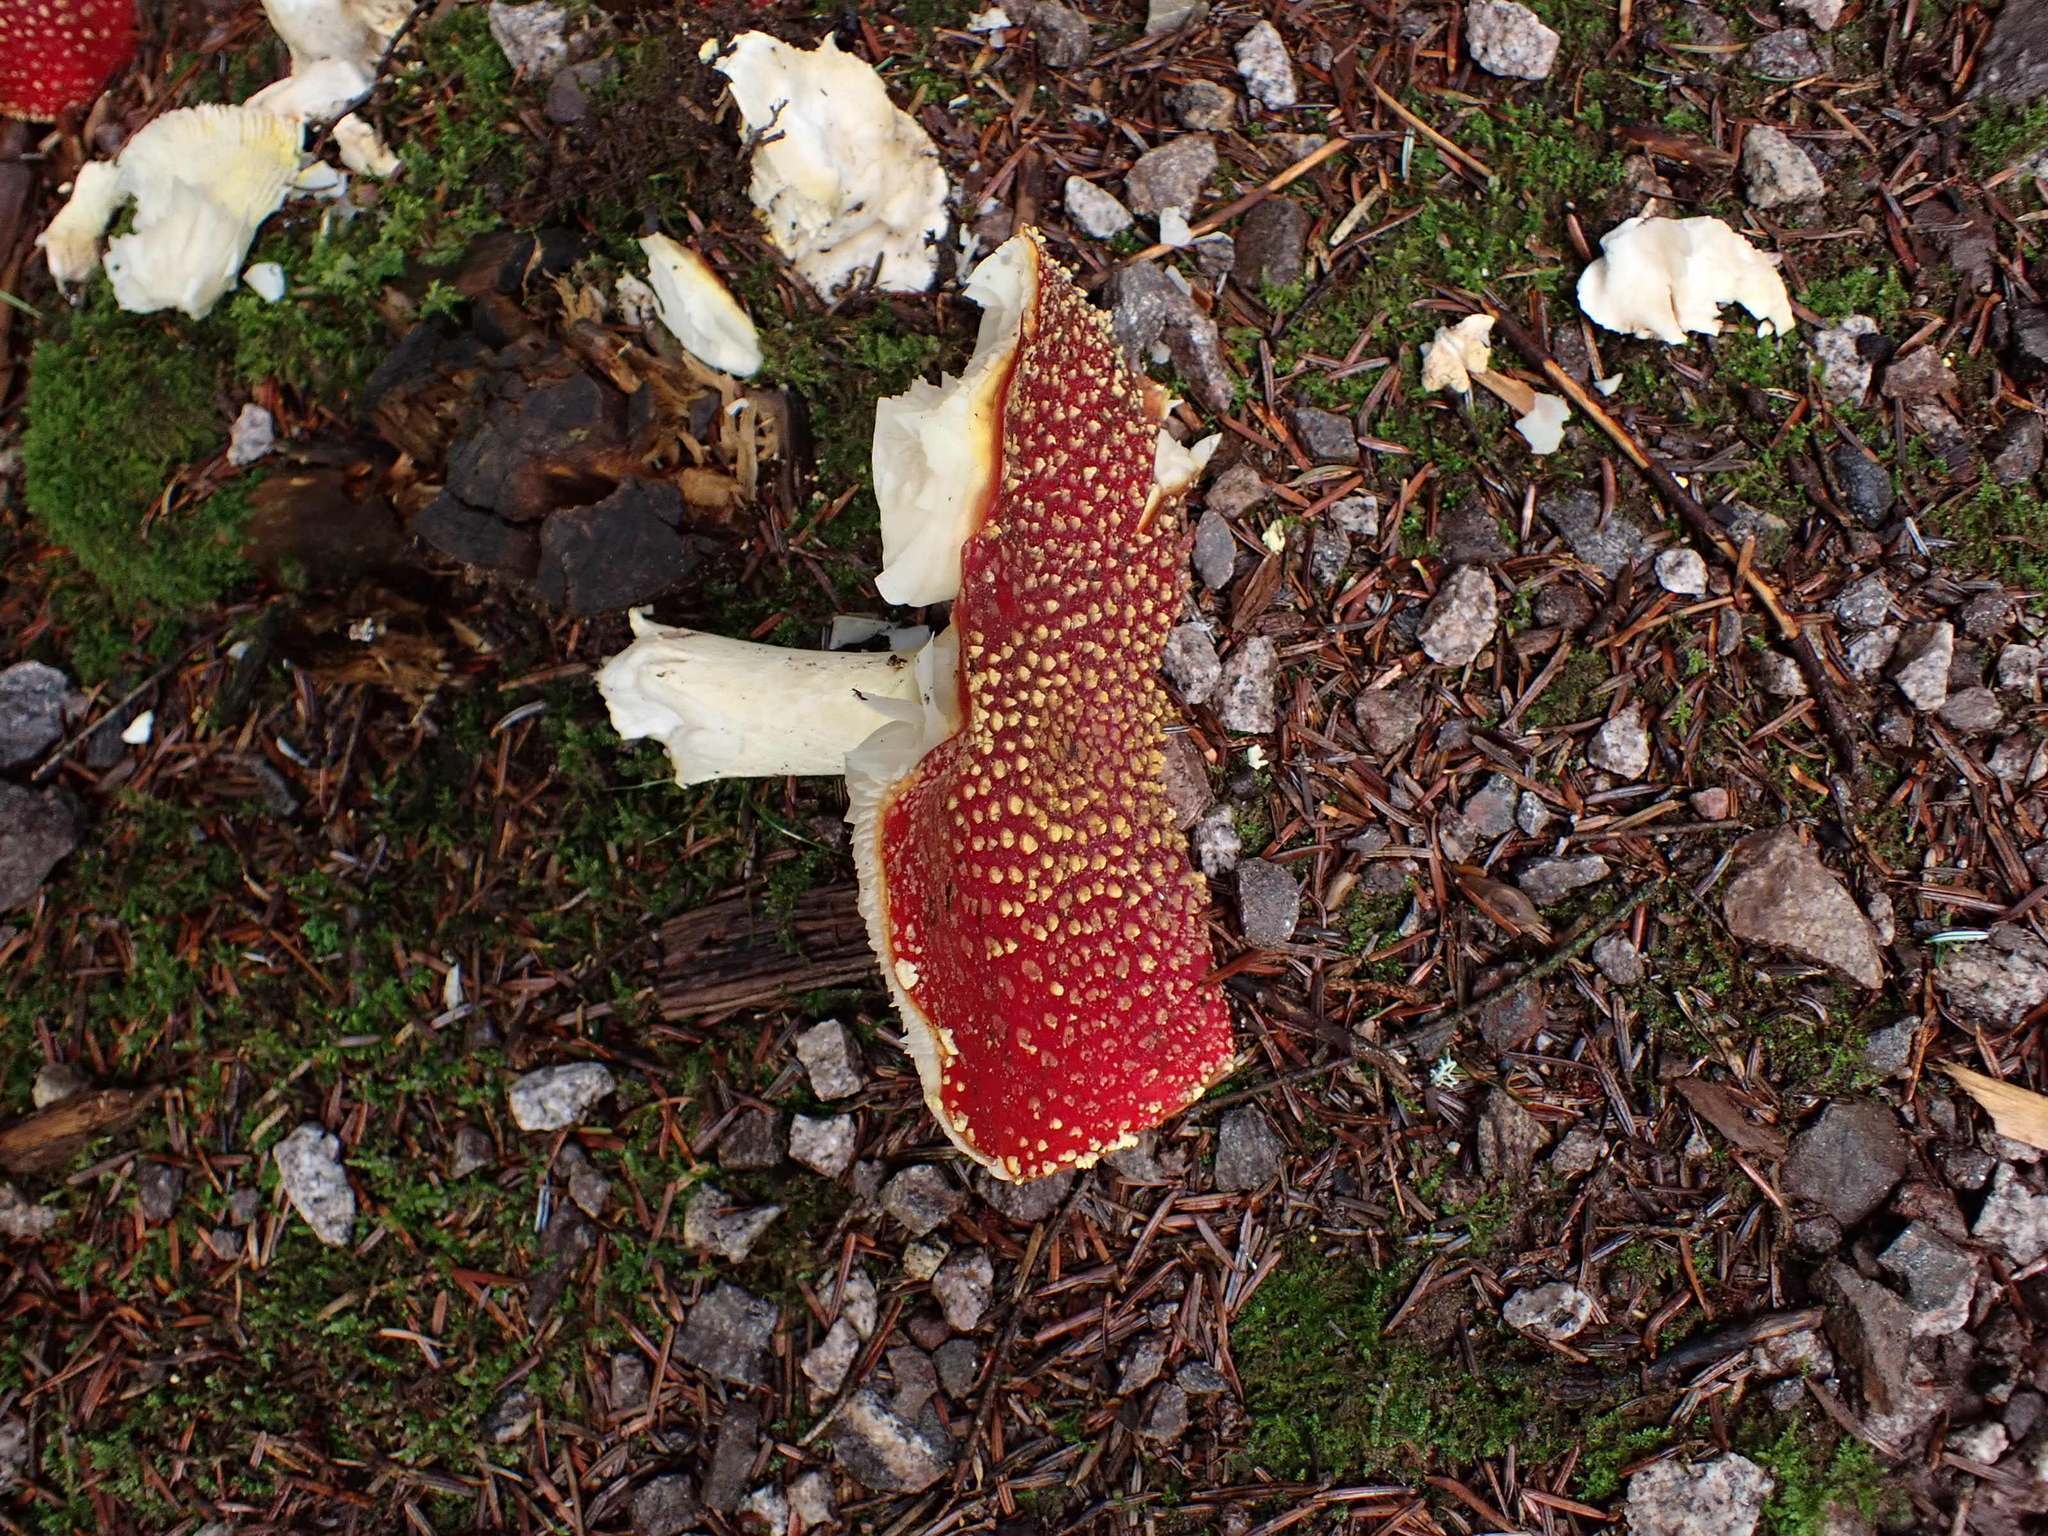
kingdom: Fungi
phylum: Basidiomycota
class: Agaricomycetes
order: Agaricales
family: Amanitaceae
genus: Amanita
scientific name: Amanita muscaria
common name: Fly agaric
